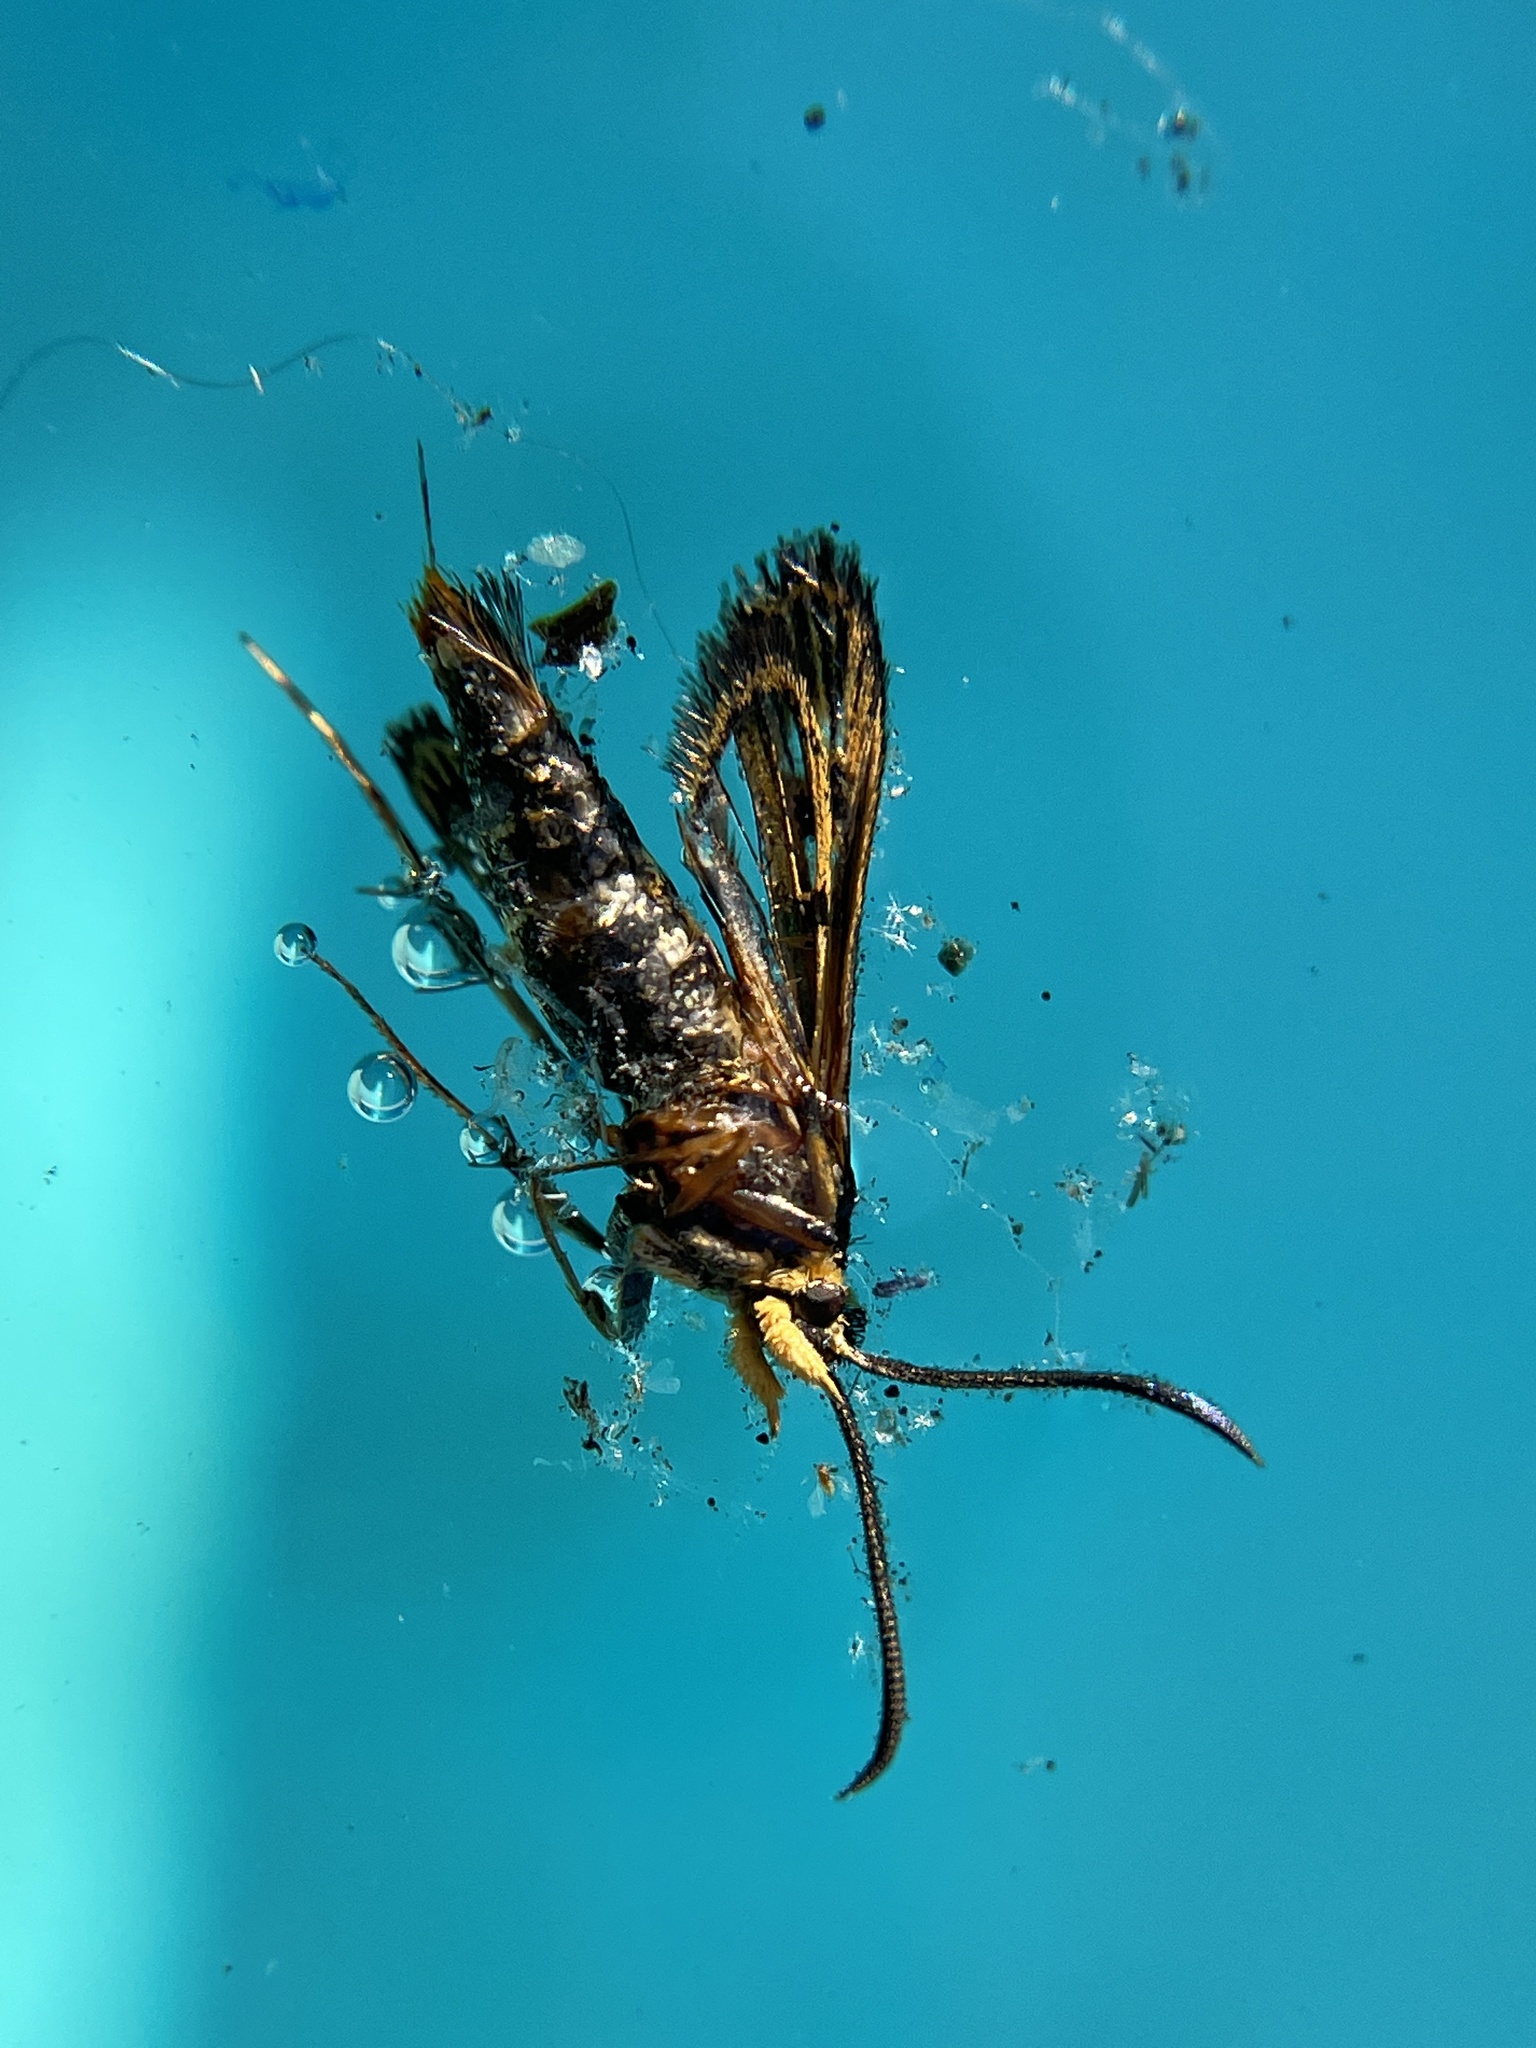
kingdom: Animalia
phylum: Arthropoda
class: Insecta
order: Lepidoptera
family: Sesiidae
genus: Synanthedon
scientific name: Synanthedon bibionipennis
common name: Strawberry crown moth
